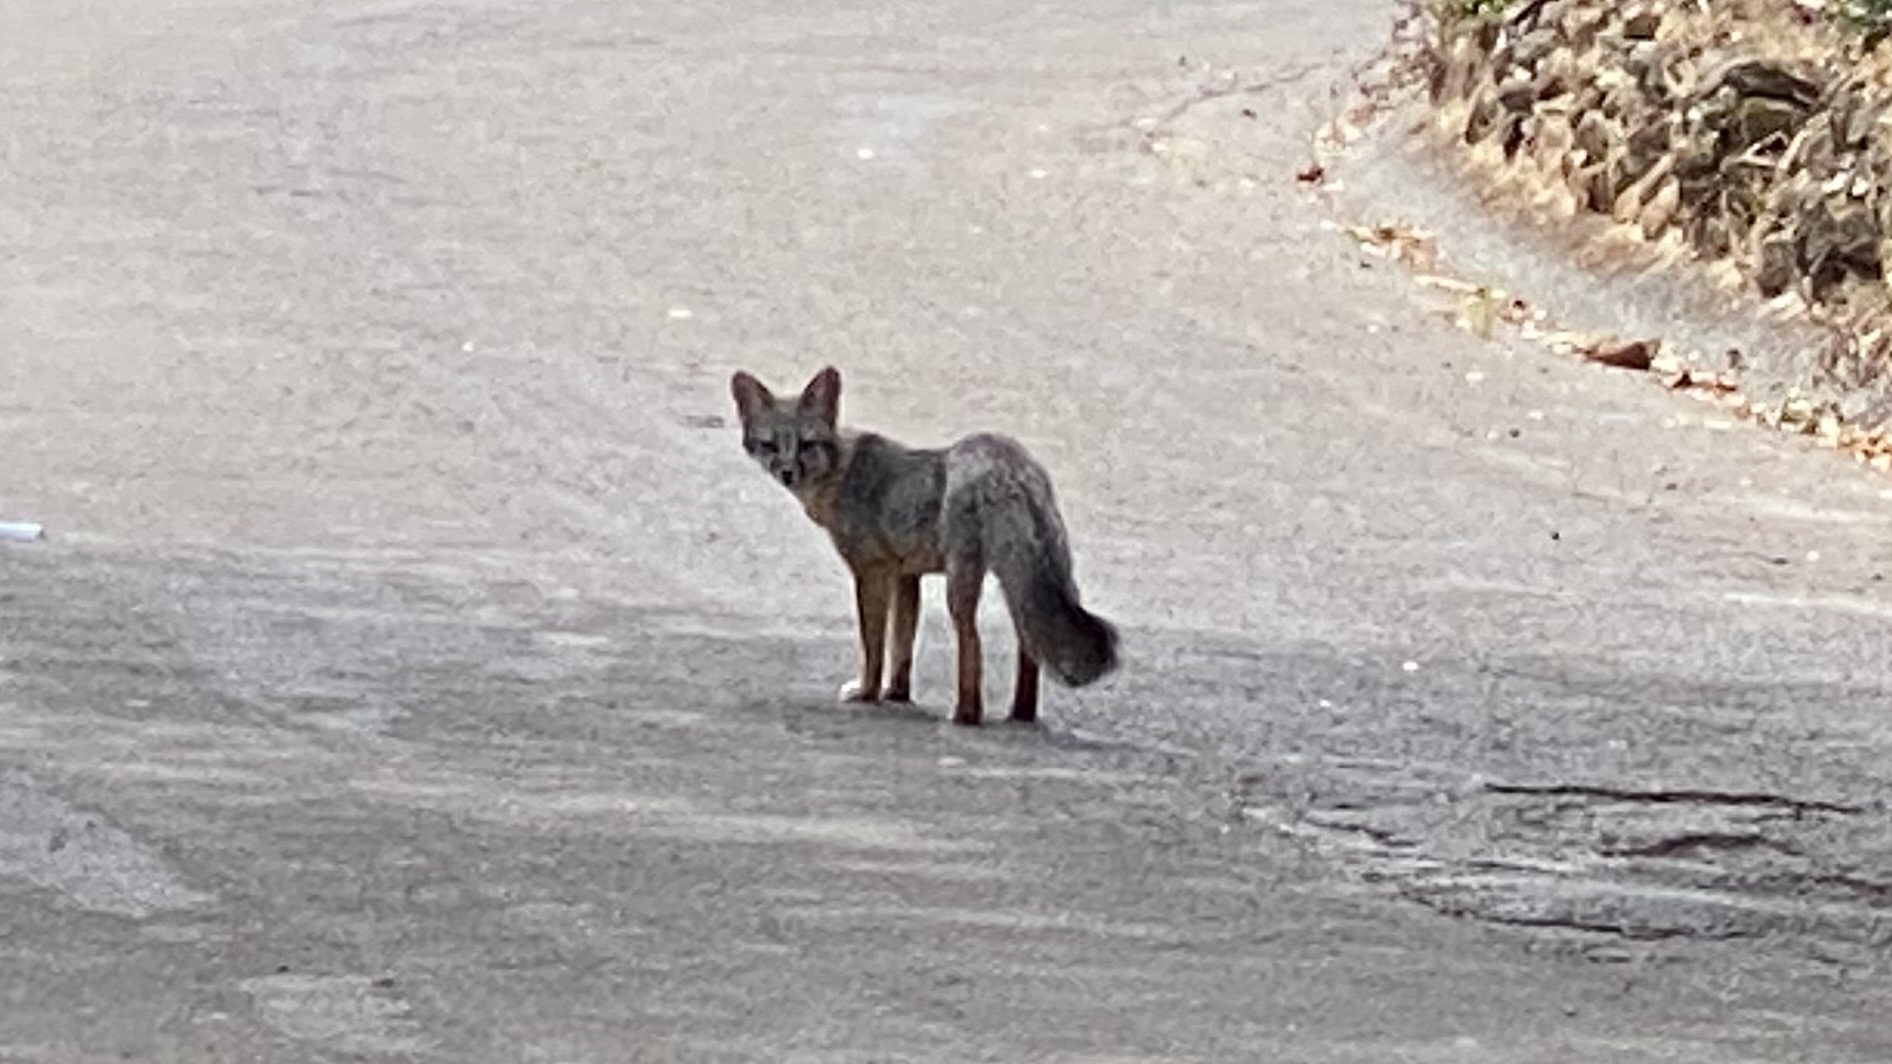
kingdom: Animalia
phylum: Chordata
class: Mammalia
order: Carnivora
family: Canidae
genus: Urocyon
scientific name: Urocyon cinereoargenteus
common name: Gray fox
